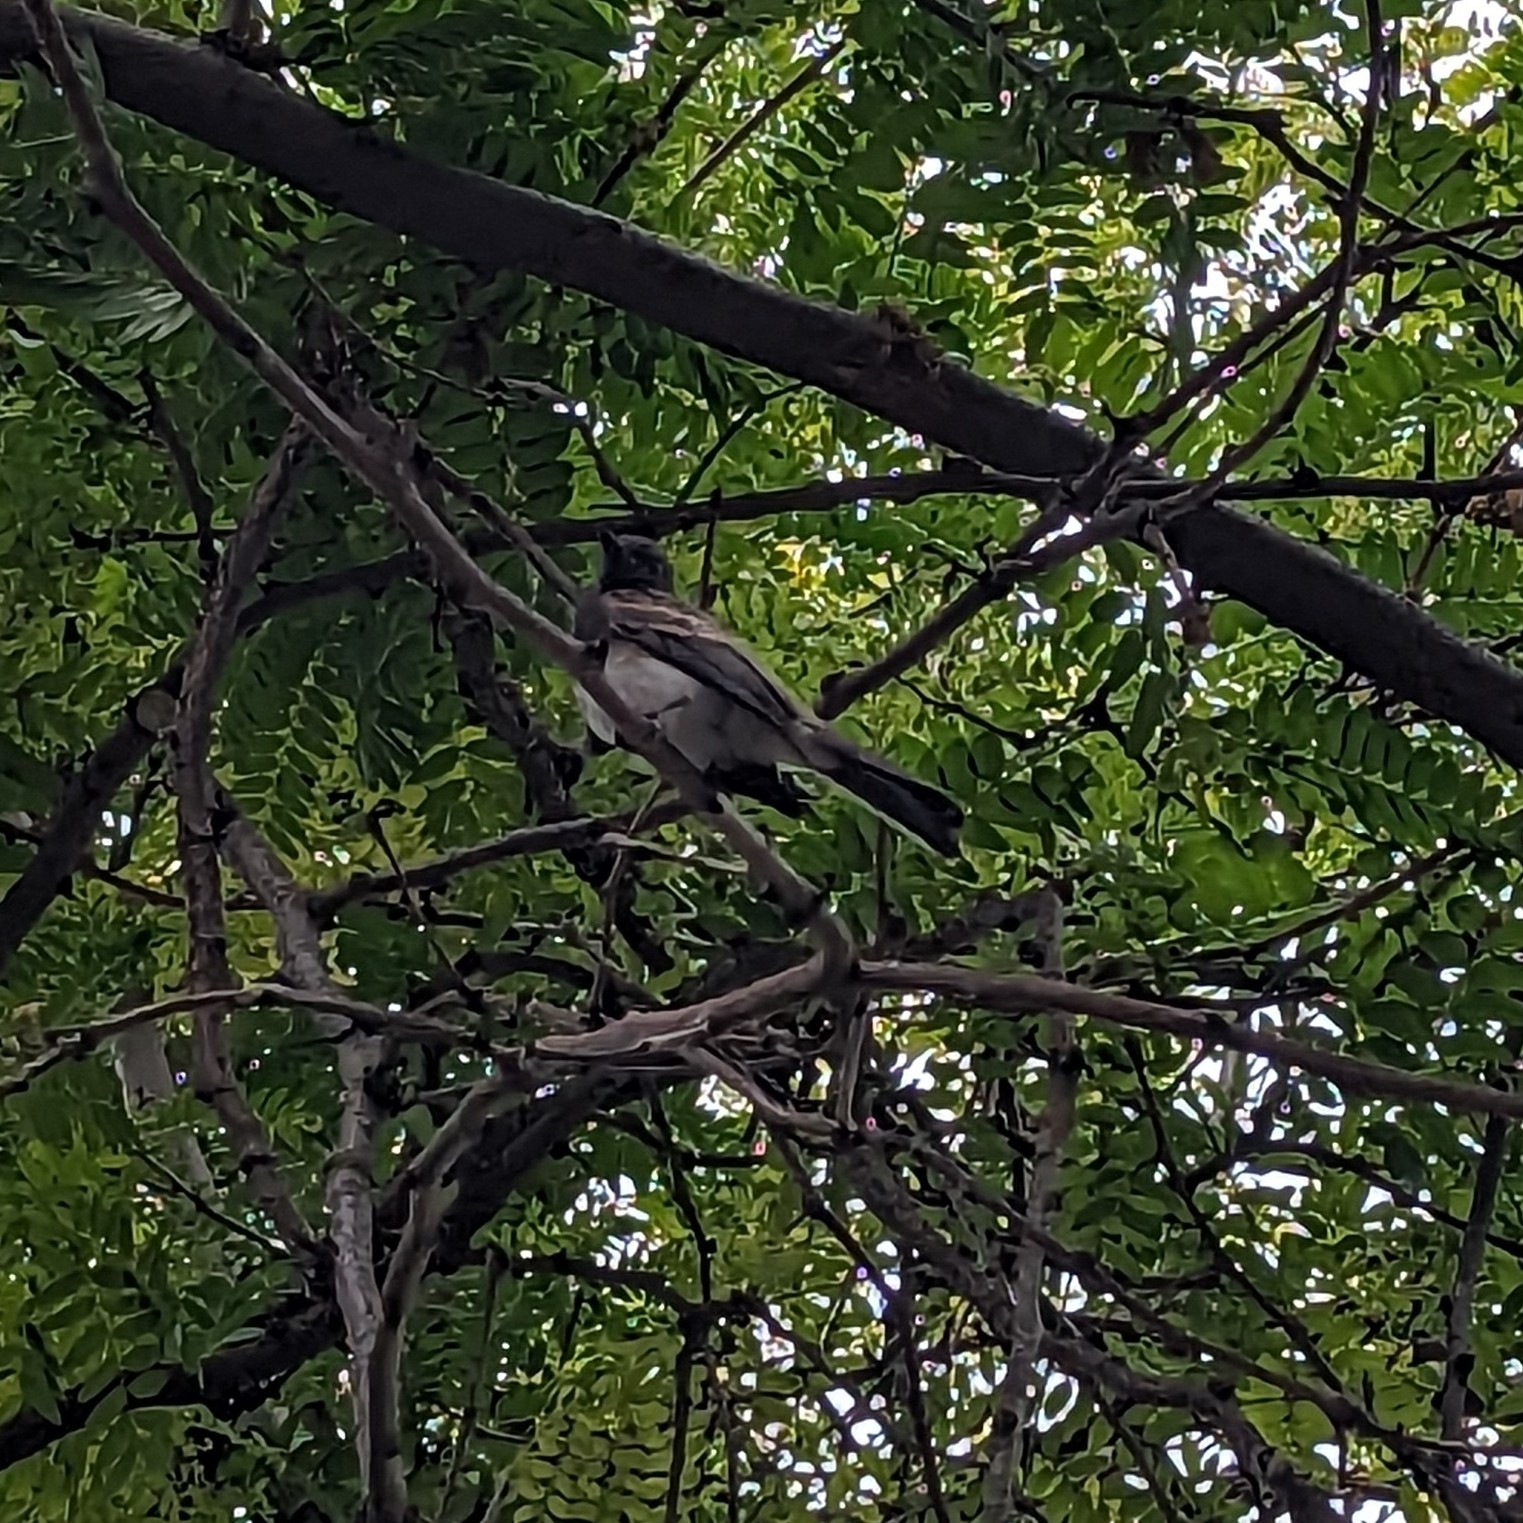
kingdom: Animalia
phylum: Chordata
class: Aves
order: Passeriformes
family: Tyrannidae
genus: Sayornis
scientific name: Sayornis nigricans
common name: Black phoebe
